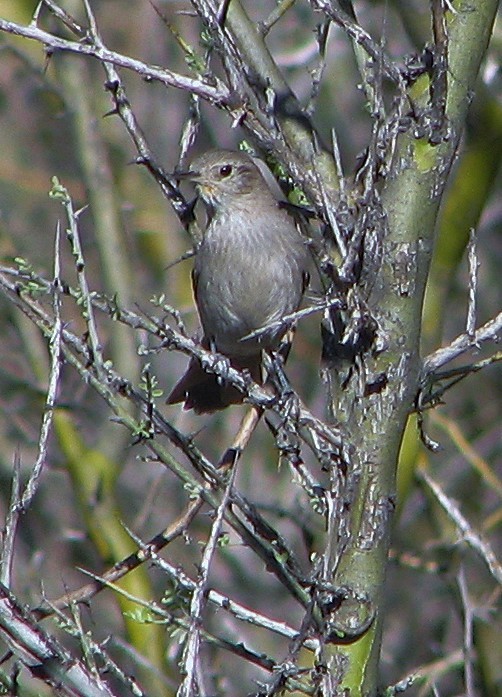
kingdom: Animalia
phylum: Chordata
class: Aves
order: Passeriformes
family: Furnariidae
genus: Asthenes
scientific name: Asthenes pyrrholeuca
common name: Sharp-billed canastero
